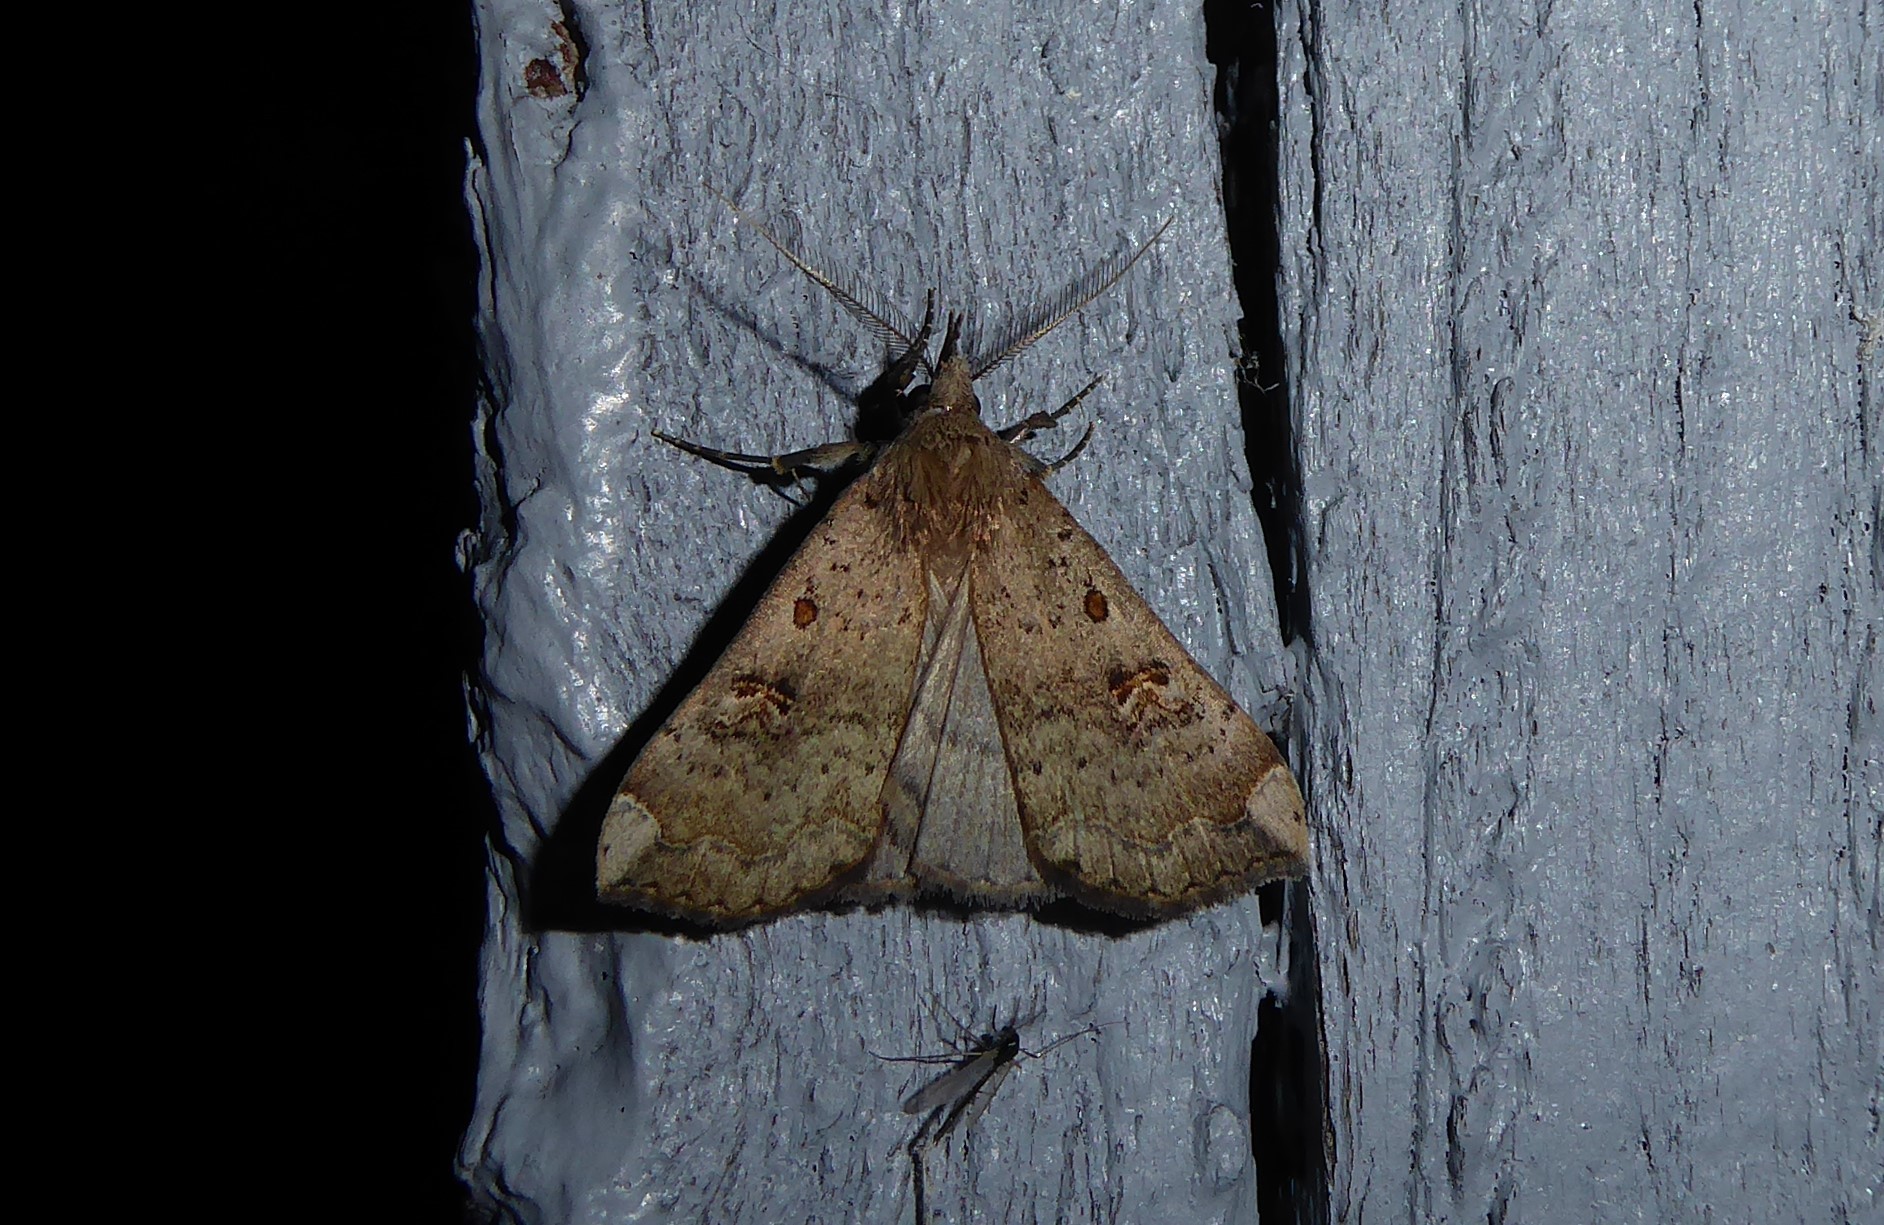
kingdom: Animalia
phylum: Arthropoda
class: Insecta
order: Lepidoptera
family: Erebidae
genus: Rhapsa
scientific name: Rhapsa scotosialis
